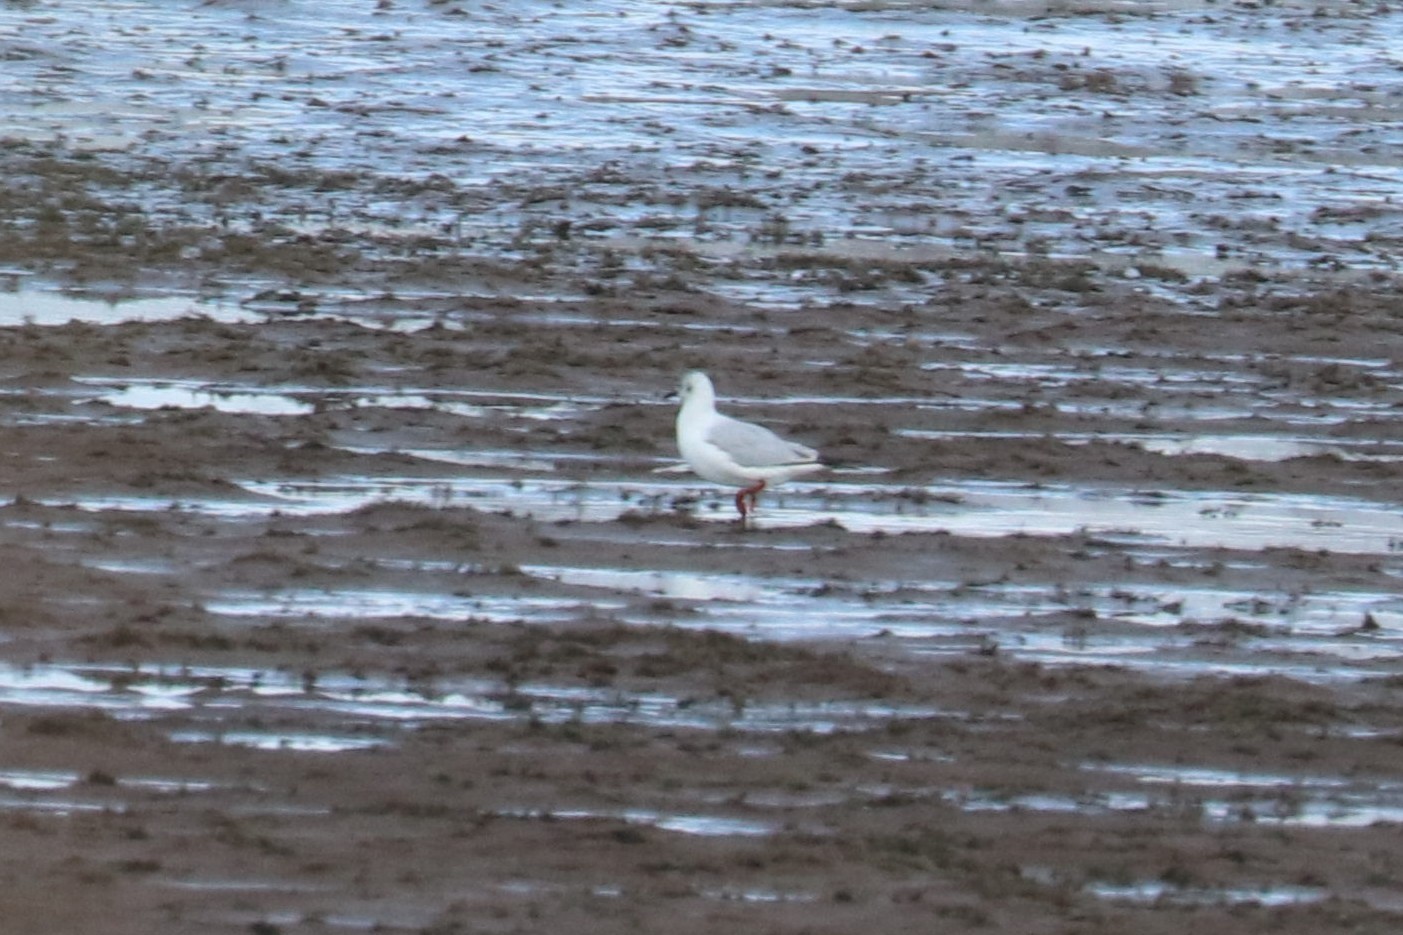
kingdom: Animalia
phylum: Chordata
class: Aves
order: Charadriiformes
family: Laridae
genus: Chroicocephalus
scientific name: Chroicocephalus ridibundus
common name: Black-headed gull
